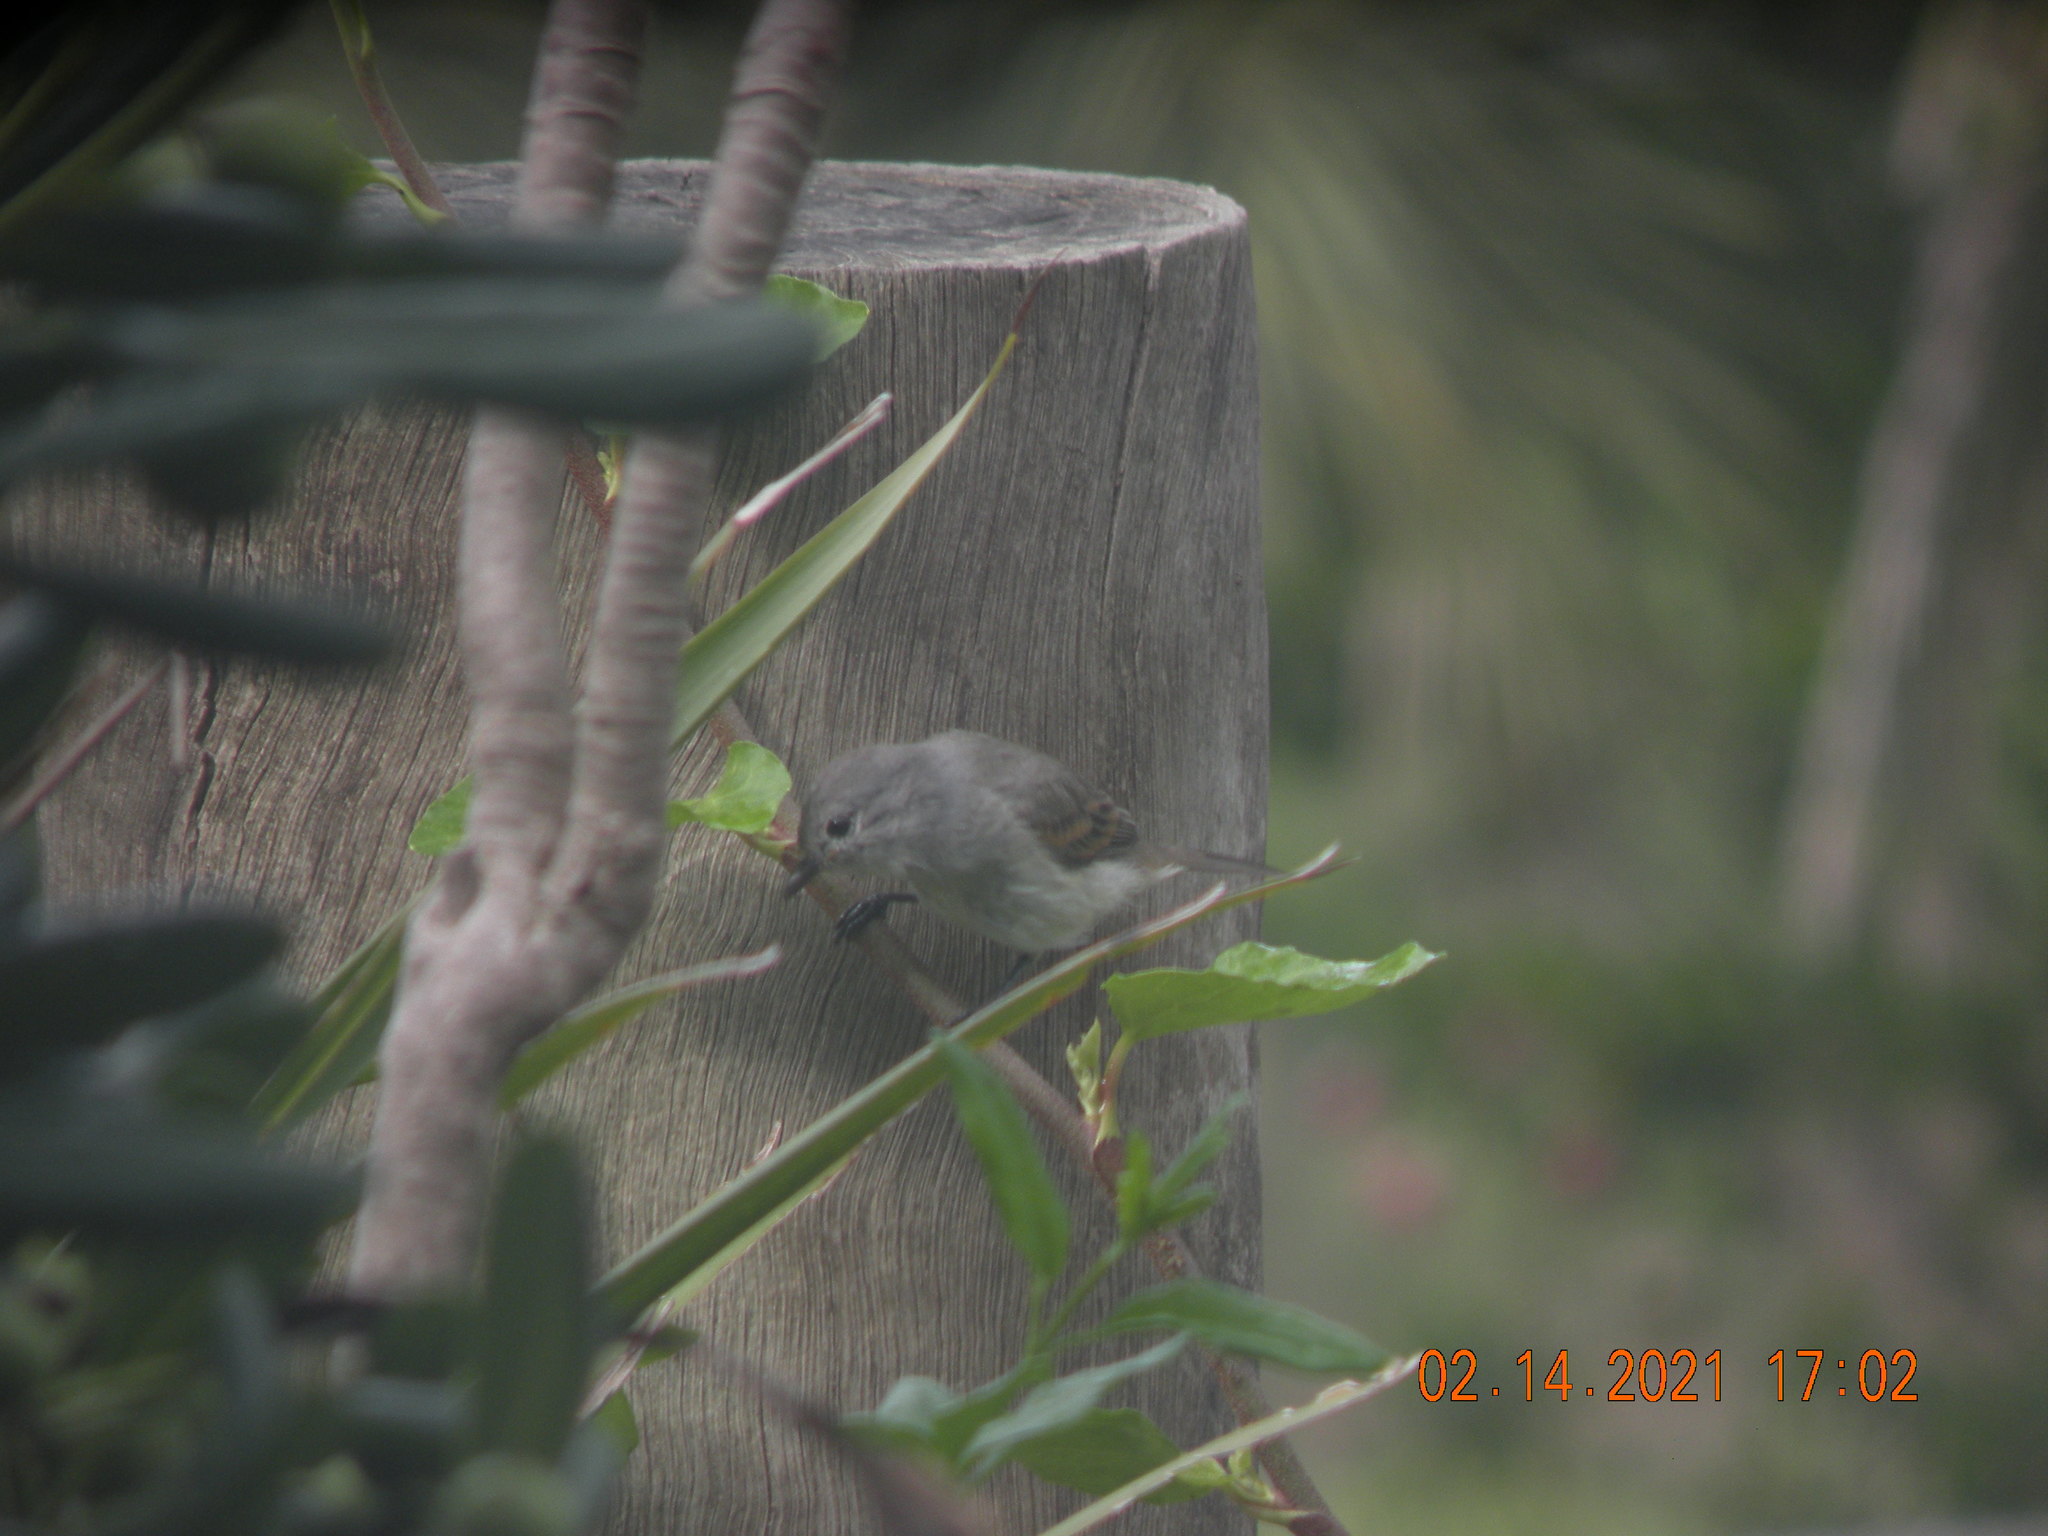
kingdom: Animalia
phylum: Chordata
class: Aves
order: Passeriformes
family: Tyrannidae
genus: Serpophaga
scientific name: Serpophaga nigricans
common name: Sooty tyrannulet
